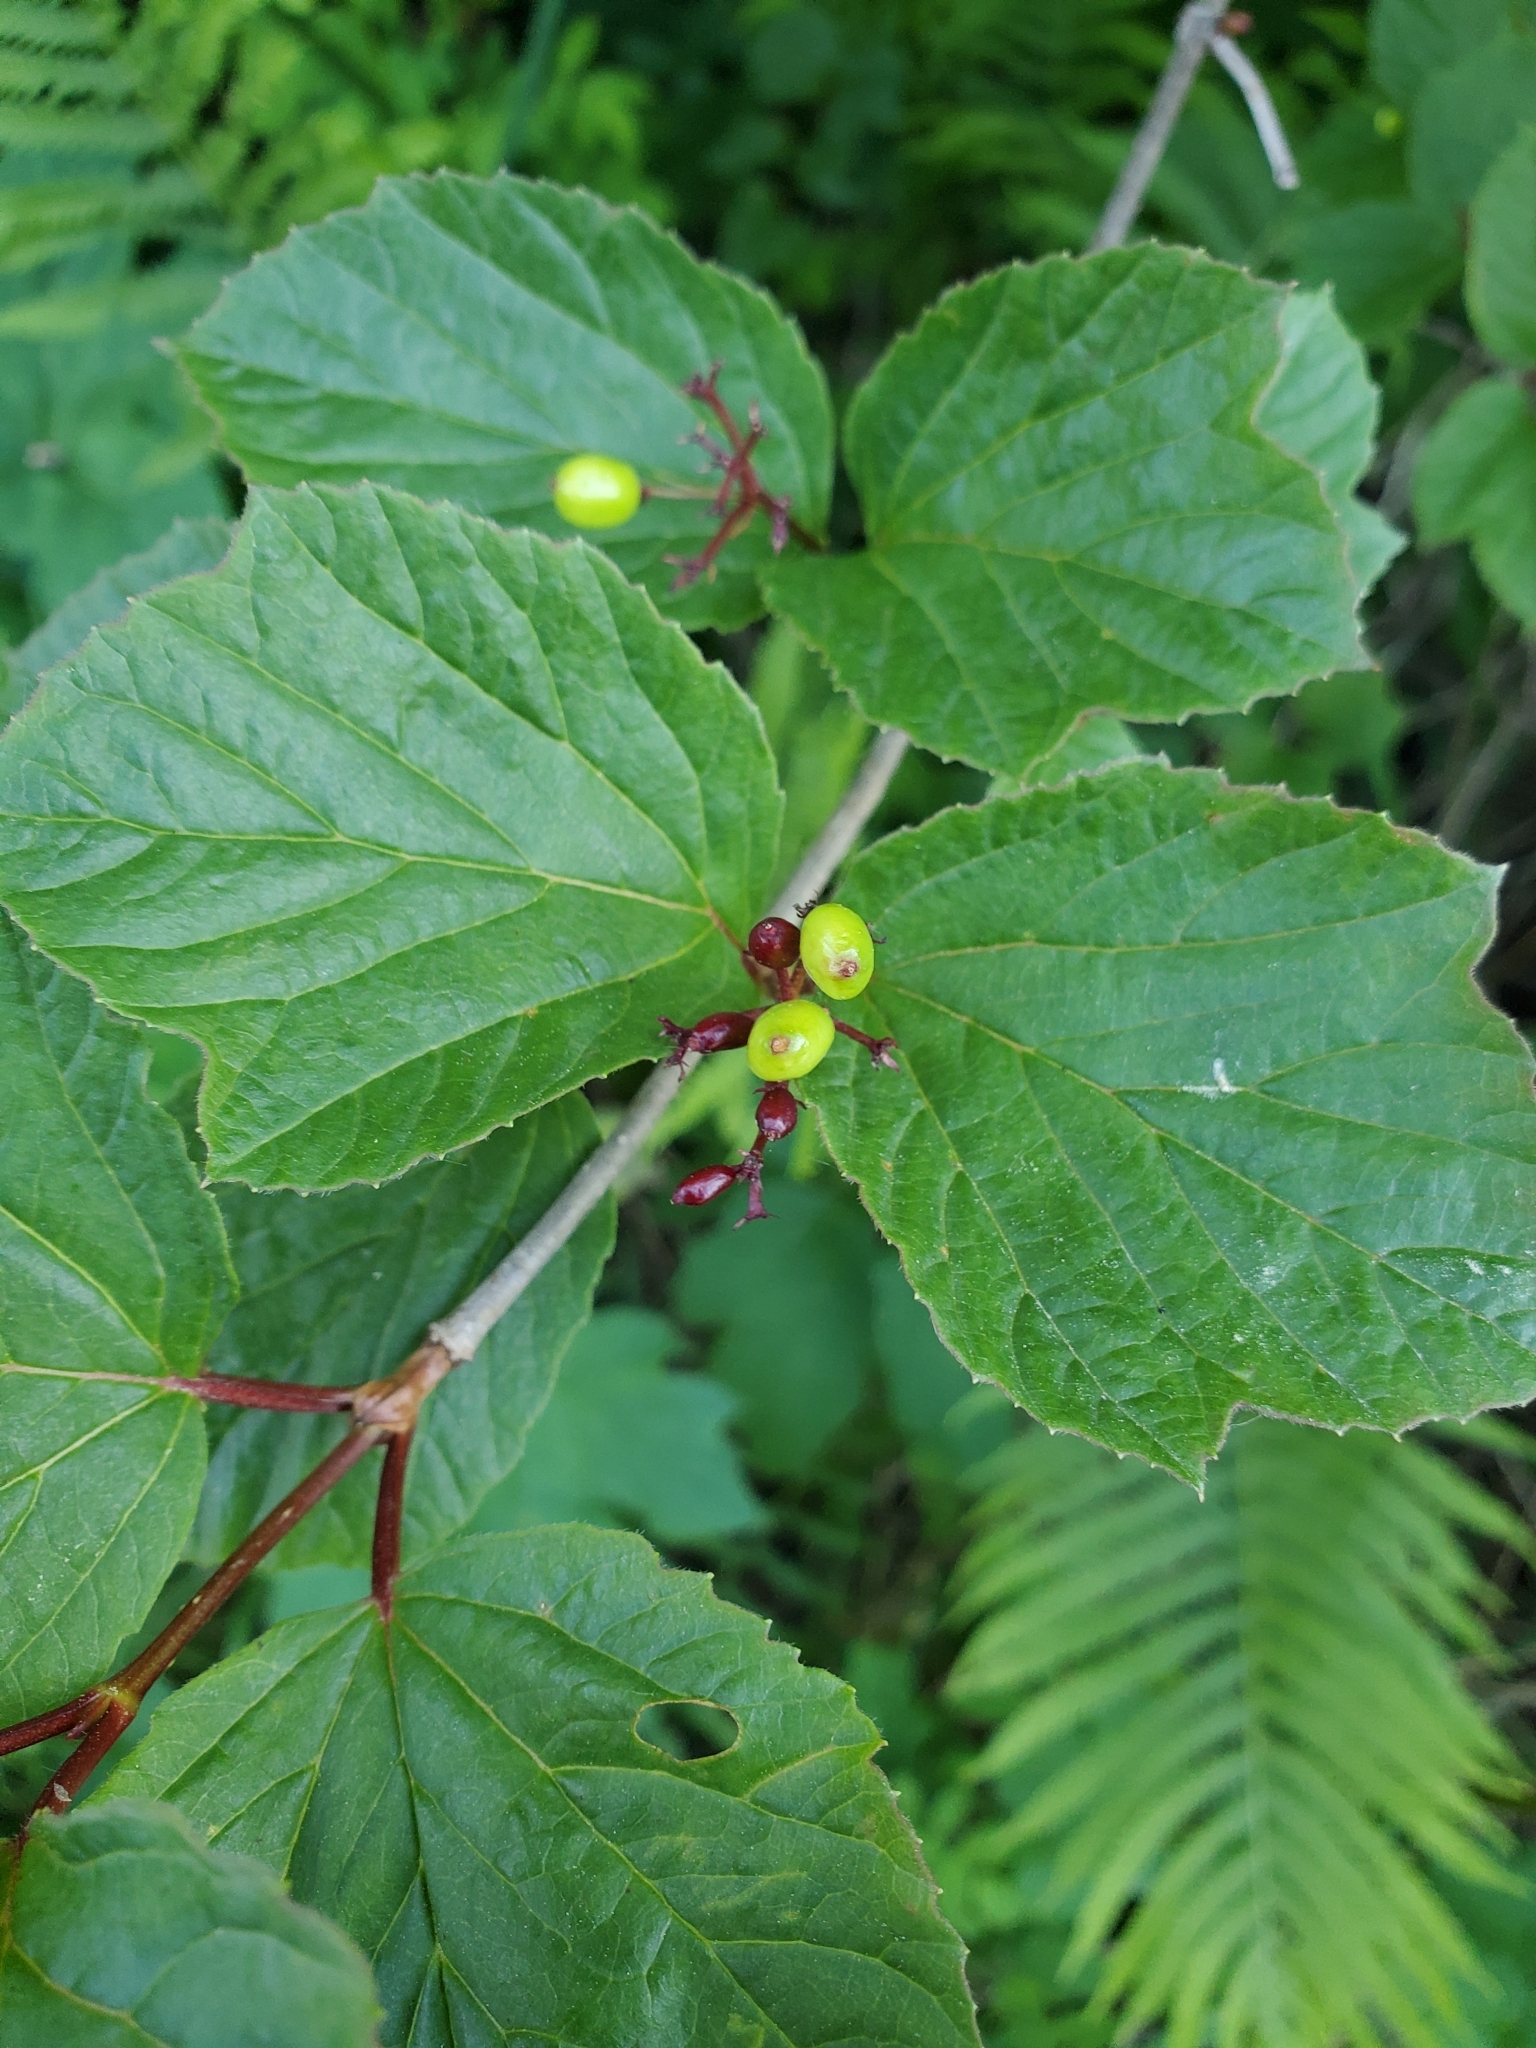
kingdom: Plantae
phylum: Tracheophyta
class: Magnoliopsida
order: Dipsacales
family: Viburnaceae
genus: Viburnum
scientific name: Viburnum edule
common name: Mooseberry
